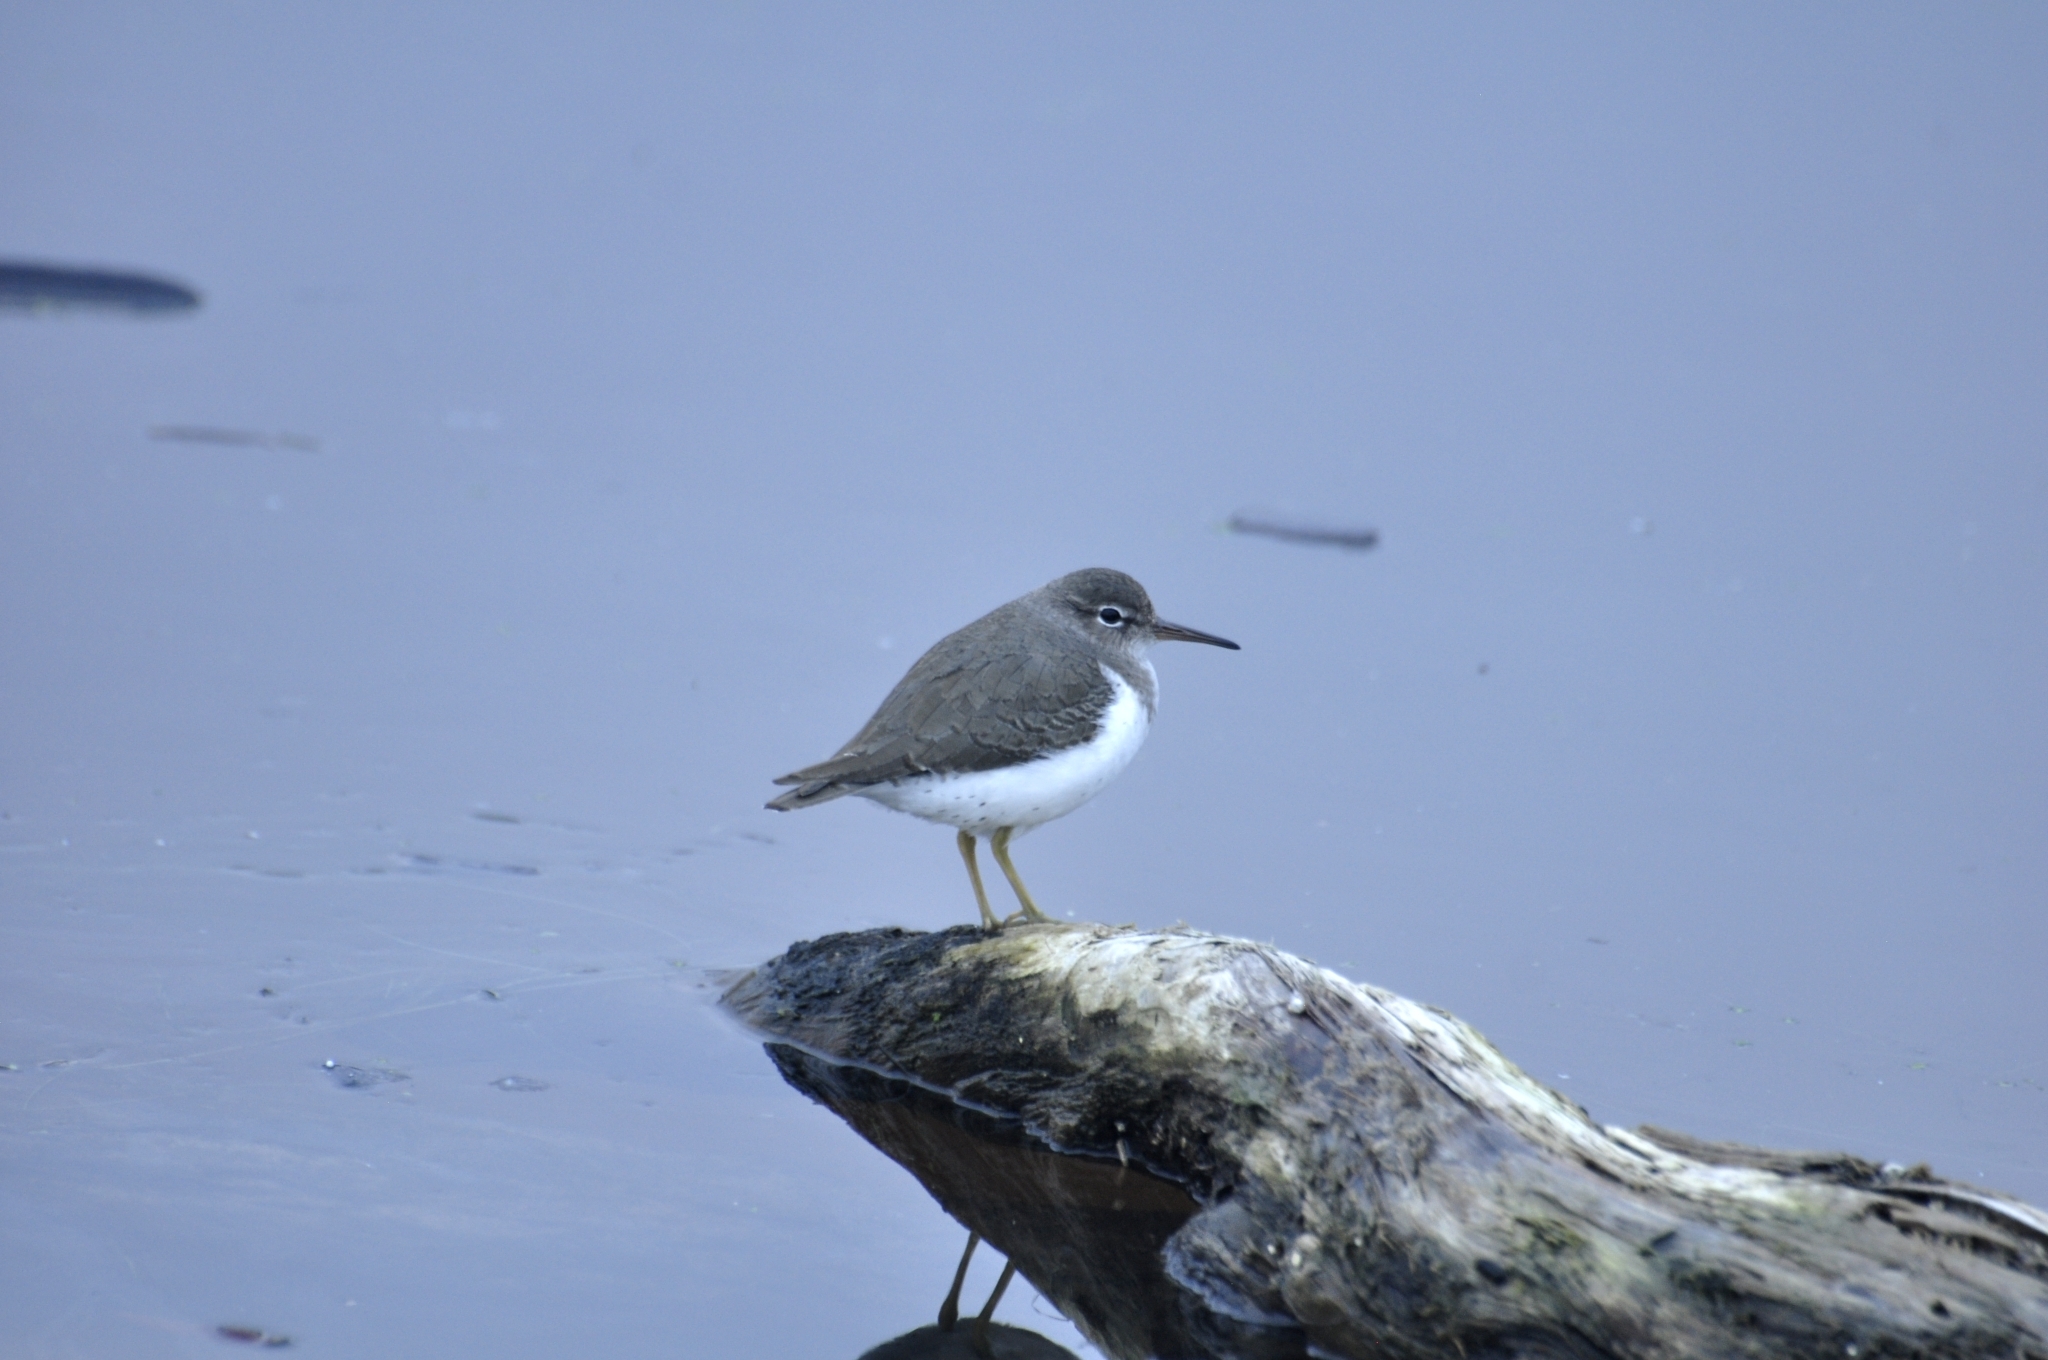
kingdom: Animalia
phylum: Chordata
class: Aves
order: Charadriiformes
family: Scolopacidae
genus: Actitis
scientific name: Actitis macularius
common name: Spotted sandpiper
